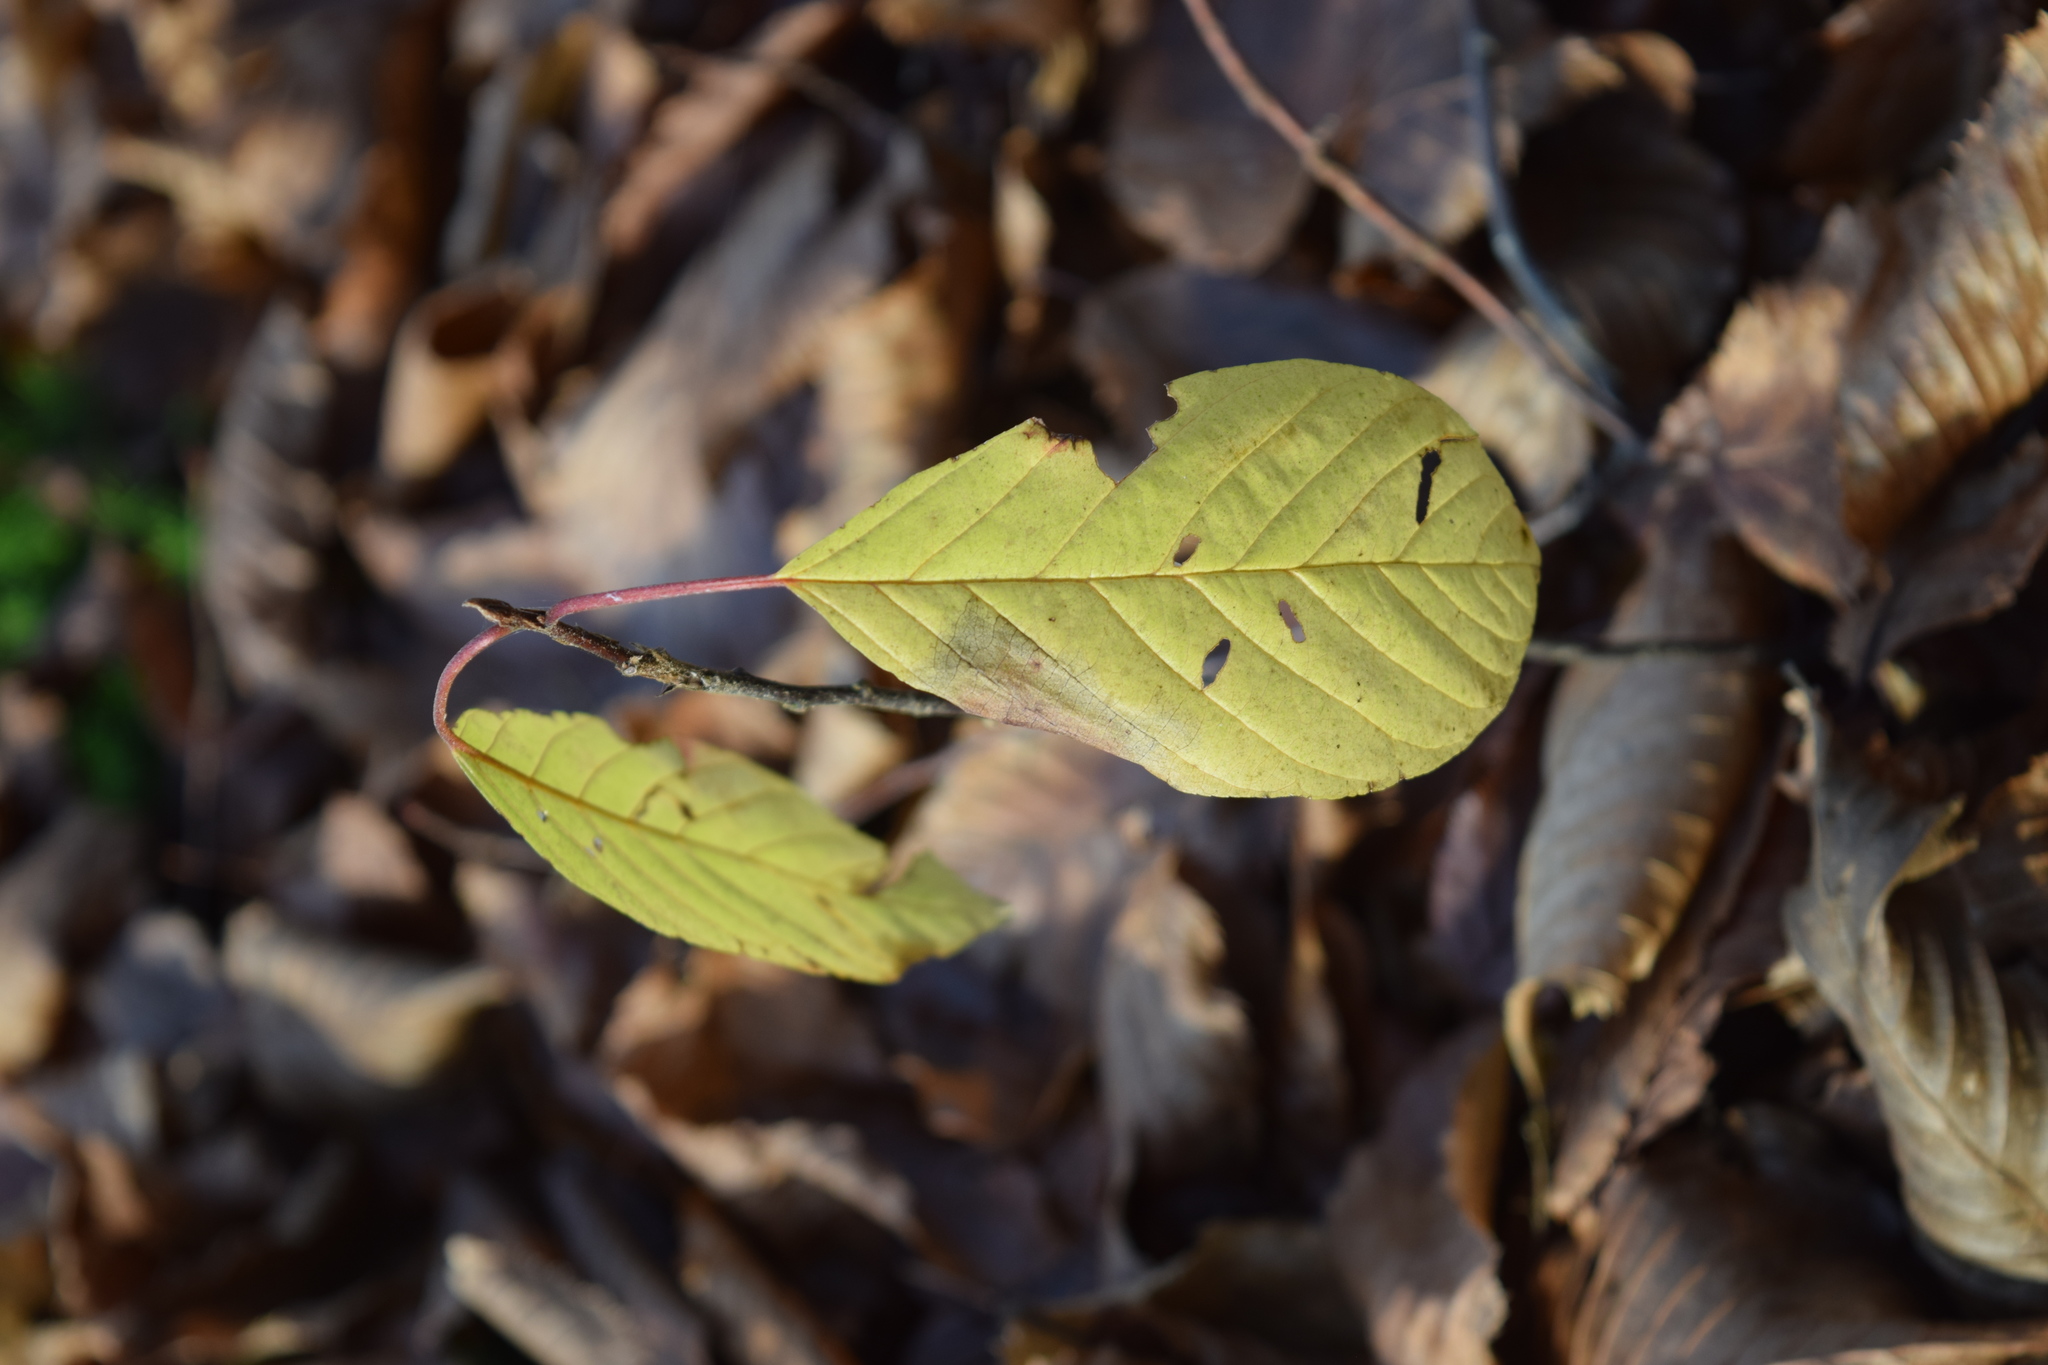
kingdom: Plantae
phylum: Tracheophyta
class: Magnoliopsida
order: Rosales
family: Rhamnaceae
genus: Frangula
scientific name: Frangula alnus
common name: Alder buckthorn
